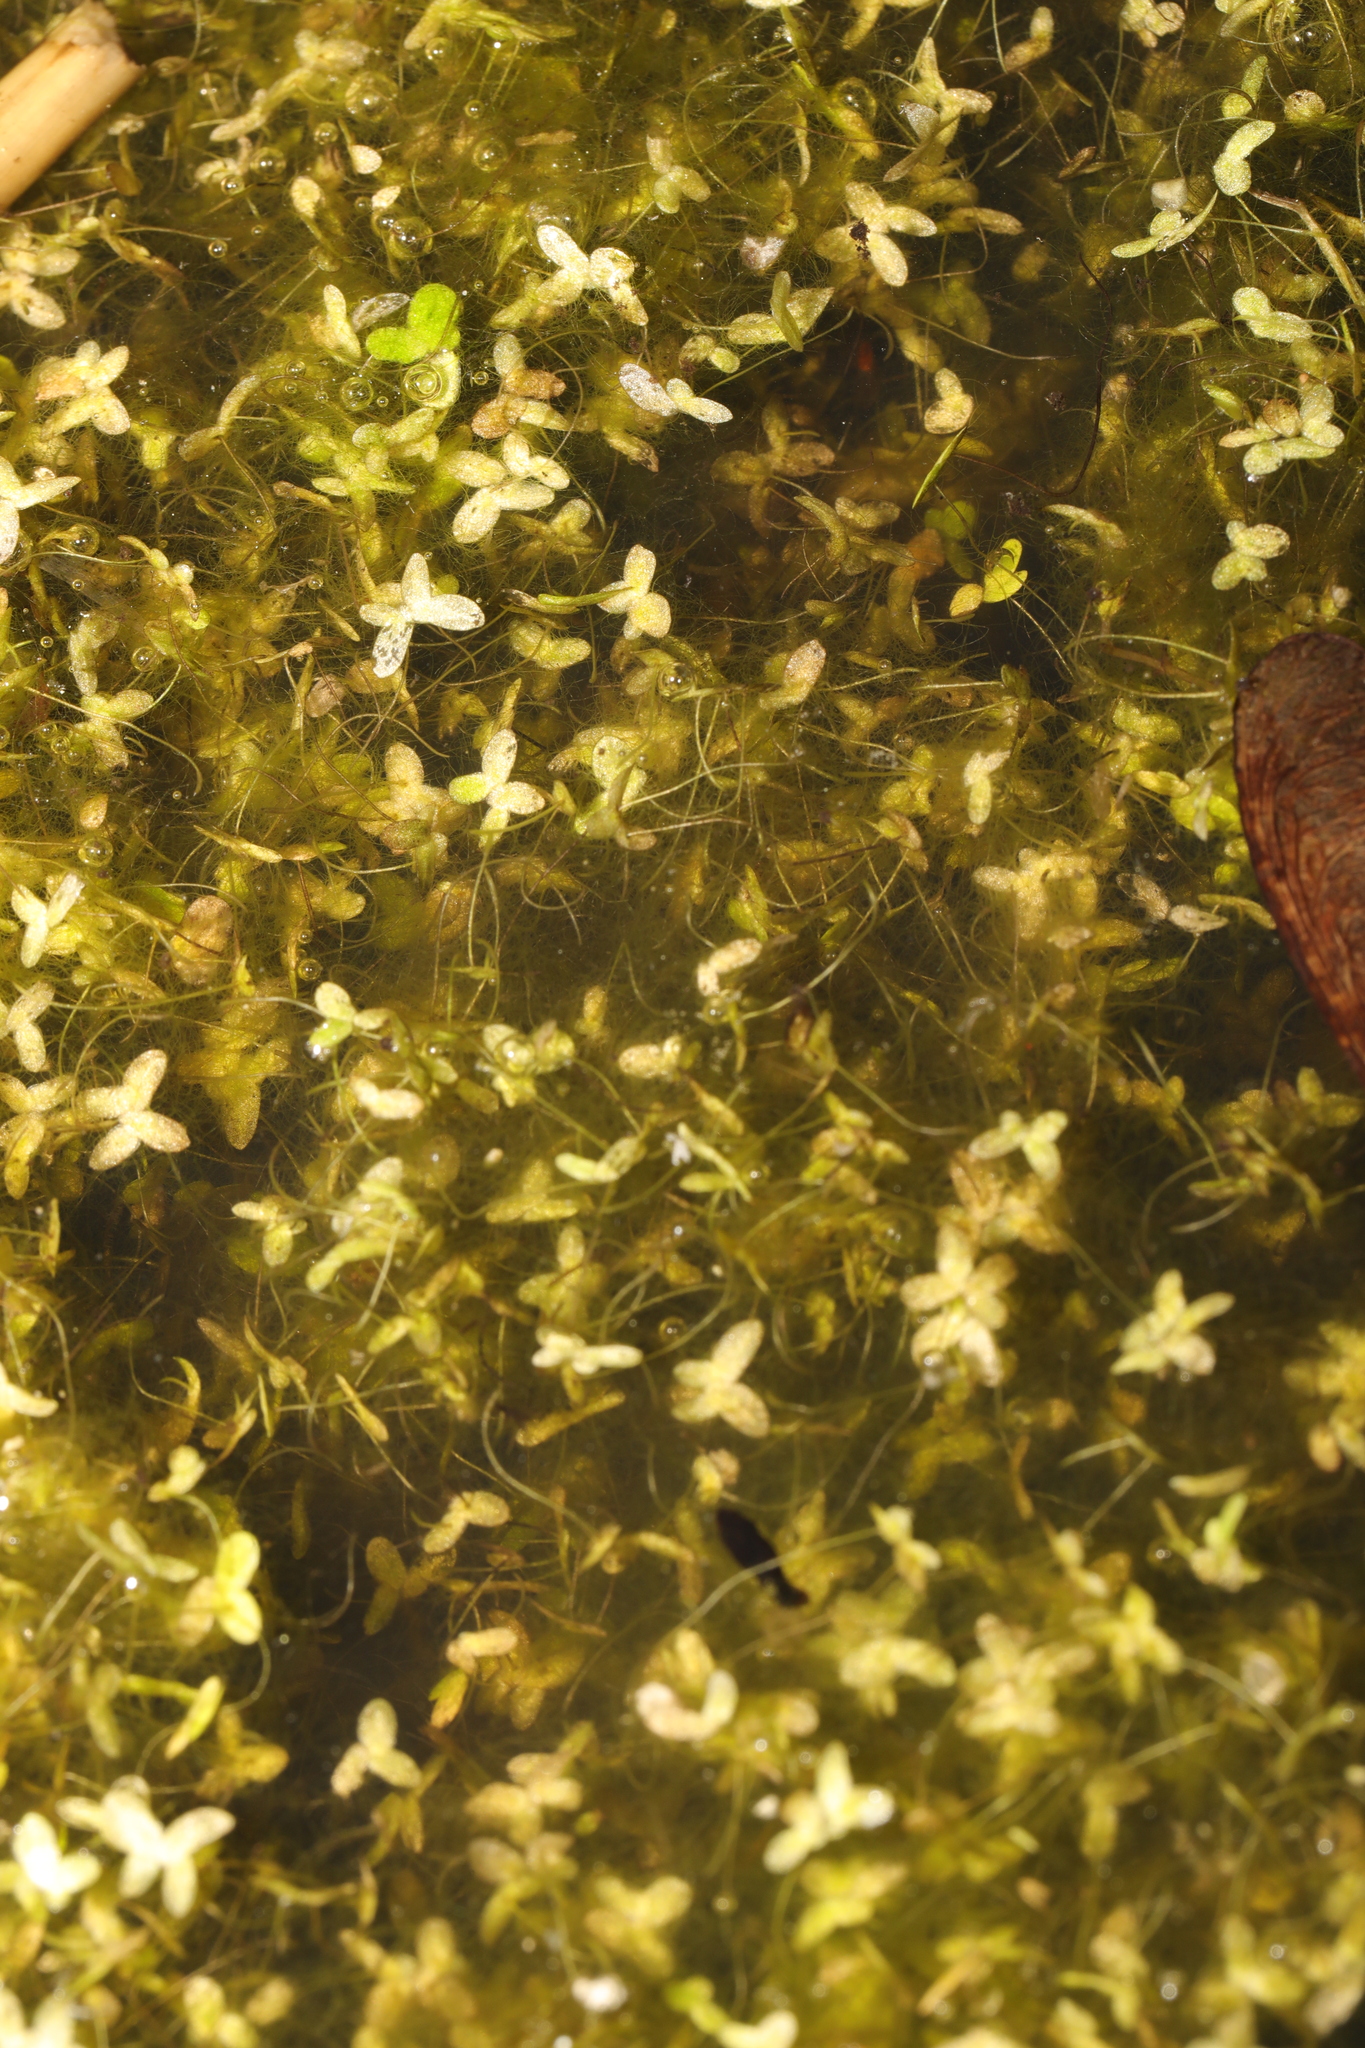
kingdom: Plantae
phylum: Tracheophyta
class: Liliopsida
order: Alismatales
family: Araceae
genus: Lemna
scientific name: Lemna trisulca
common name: Ivy-leaved duckweed
